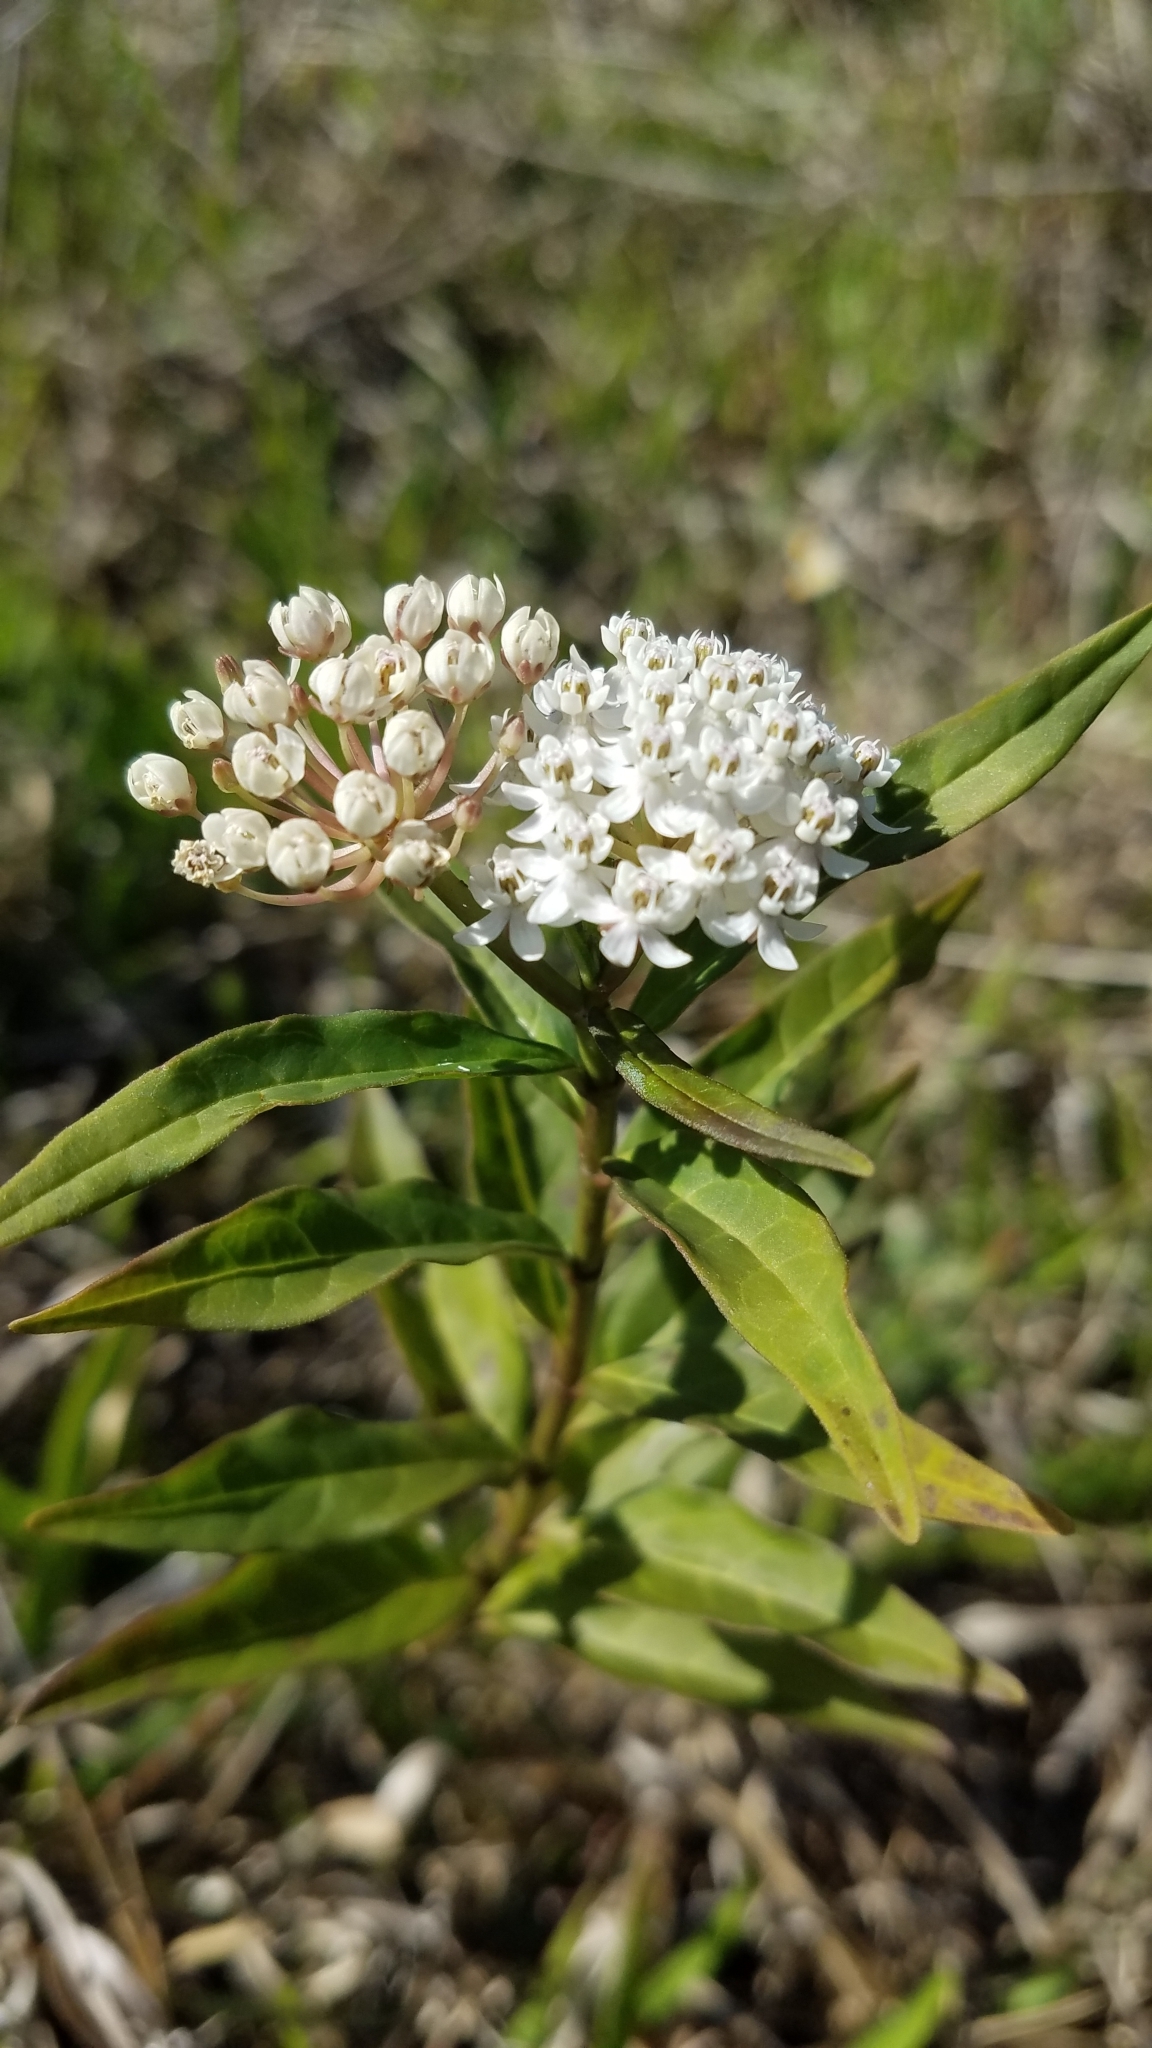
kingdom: Plantae
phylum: Tracheophyta
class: Magnoliopsida
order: Gentianales
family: Apocynaceae
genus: Asclepias
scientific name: Asclepias perennis
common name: Smooth-seed milkweed
